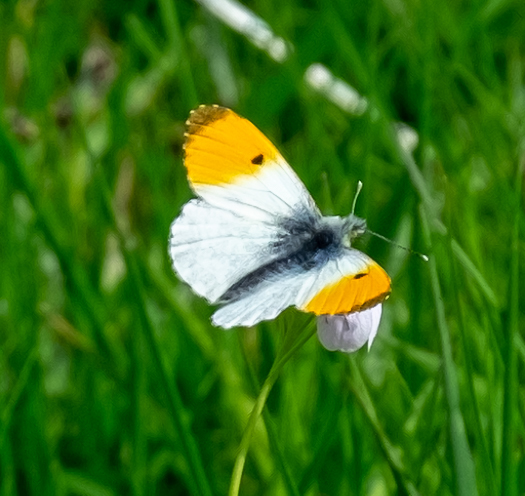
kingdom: Animalia
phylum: Arthropoda
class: Insecta
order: Lepidoptera
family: Pieridae
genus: Anthocharis
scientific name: Anthocharis cardamines
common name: Orange-tip
